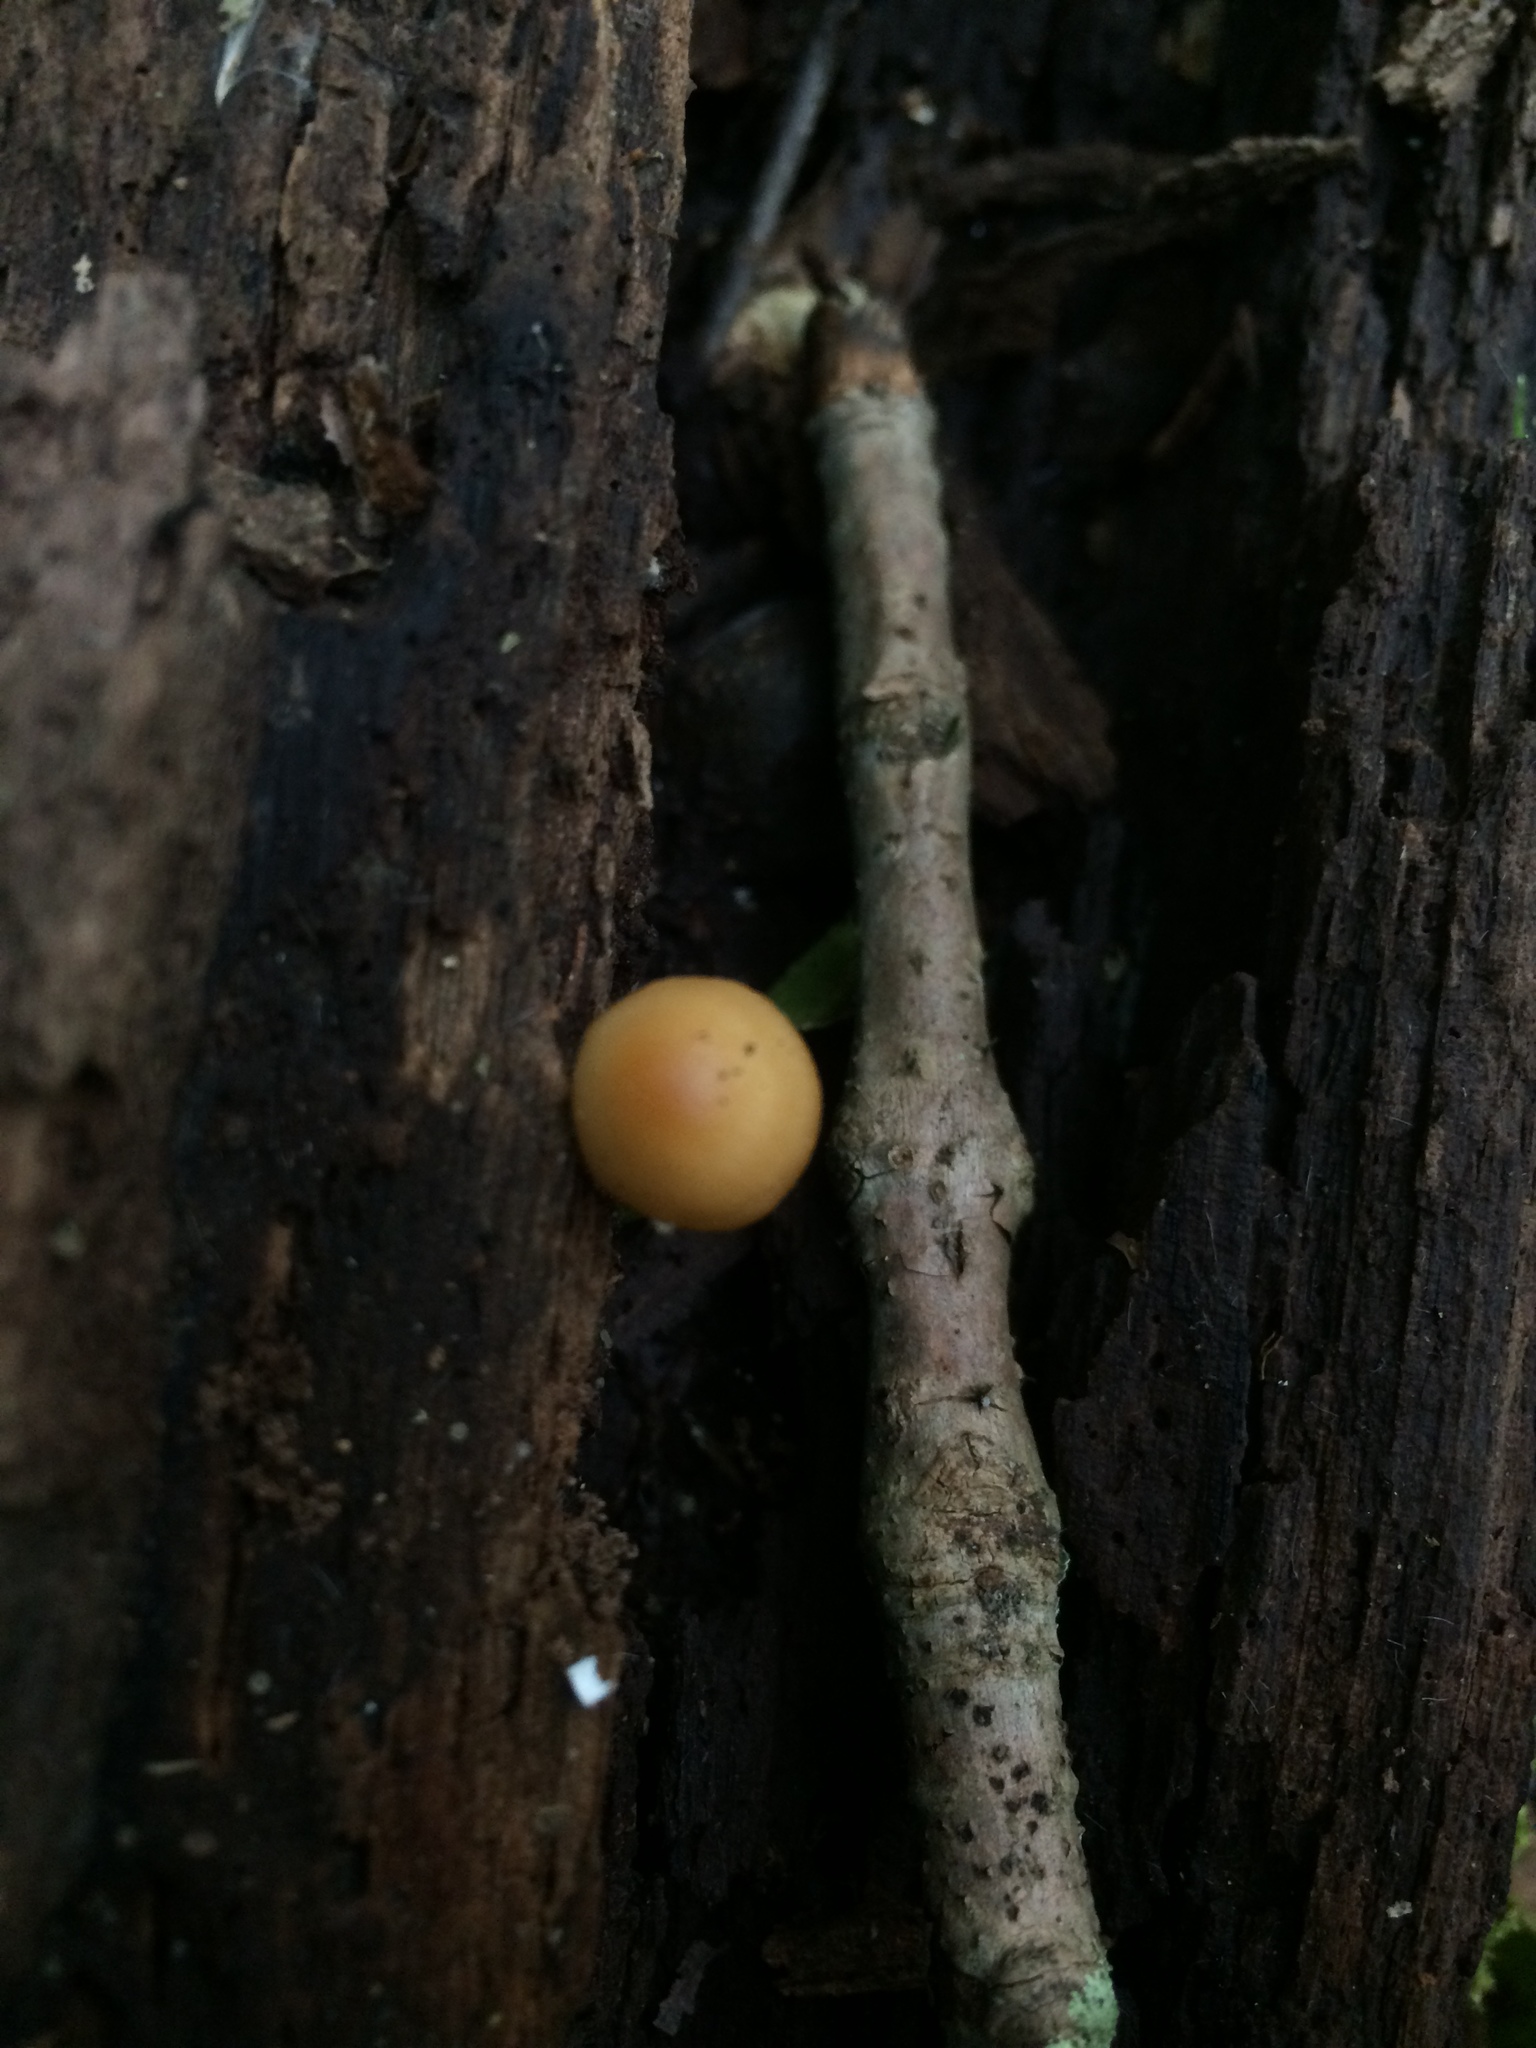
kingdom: Fungi
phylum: Basidiomycota
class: Agaricomycetes
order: Agaricales
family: Physalacriaceae
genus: Rhizomarasmius
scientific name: Rhizomarasmius pyrrhocephalus
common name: Hairy long stem marasmius
